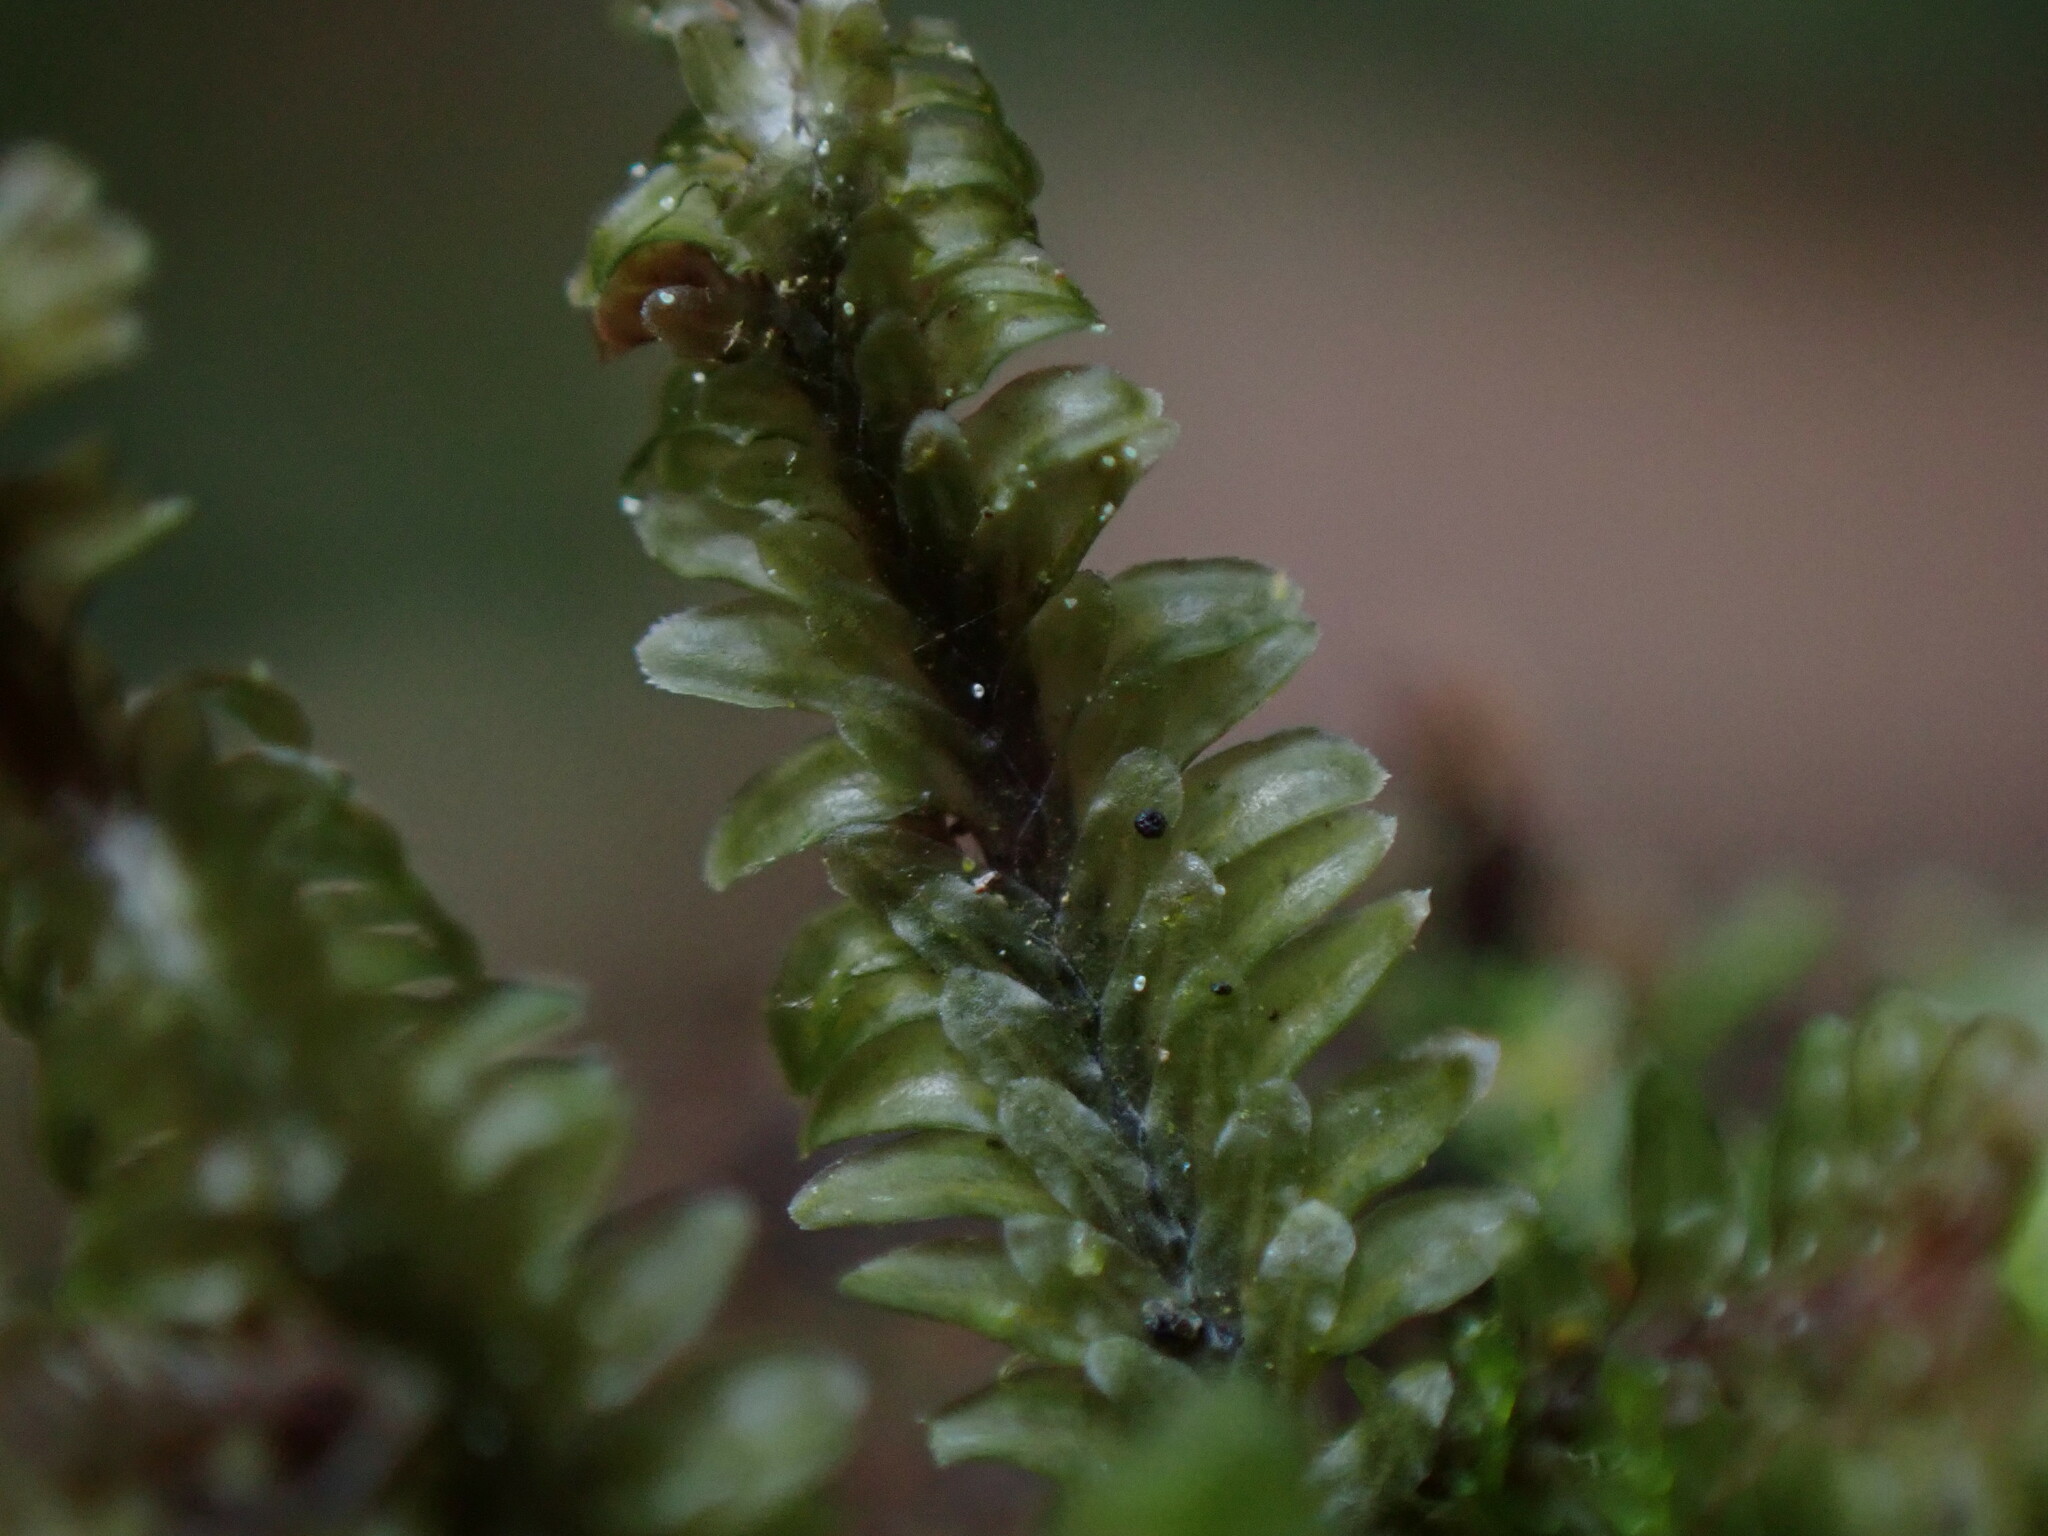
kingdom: Plantae
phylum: Marchantiophyta
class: Jungermanniopsida
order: Jungermanniales
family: Scapaniaceae
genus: Diplophyllum
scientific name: Diplophyllum albicans
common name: White earwort
